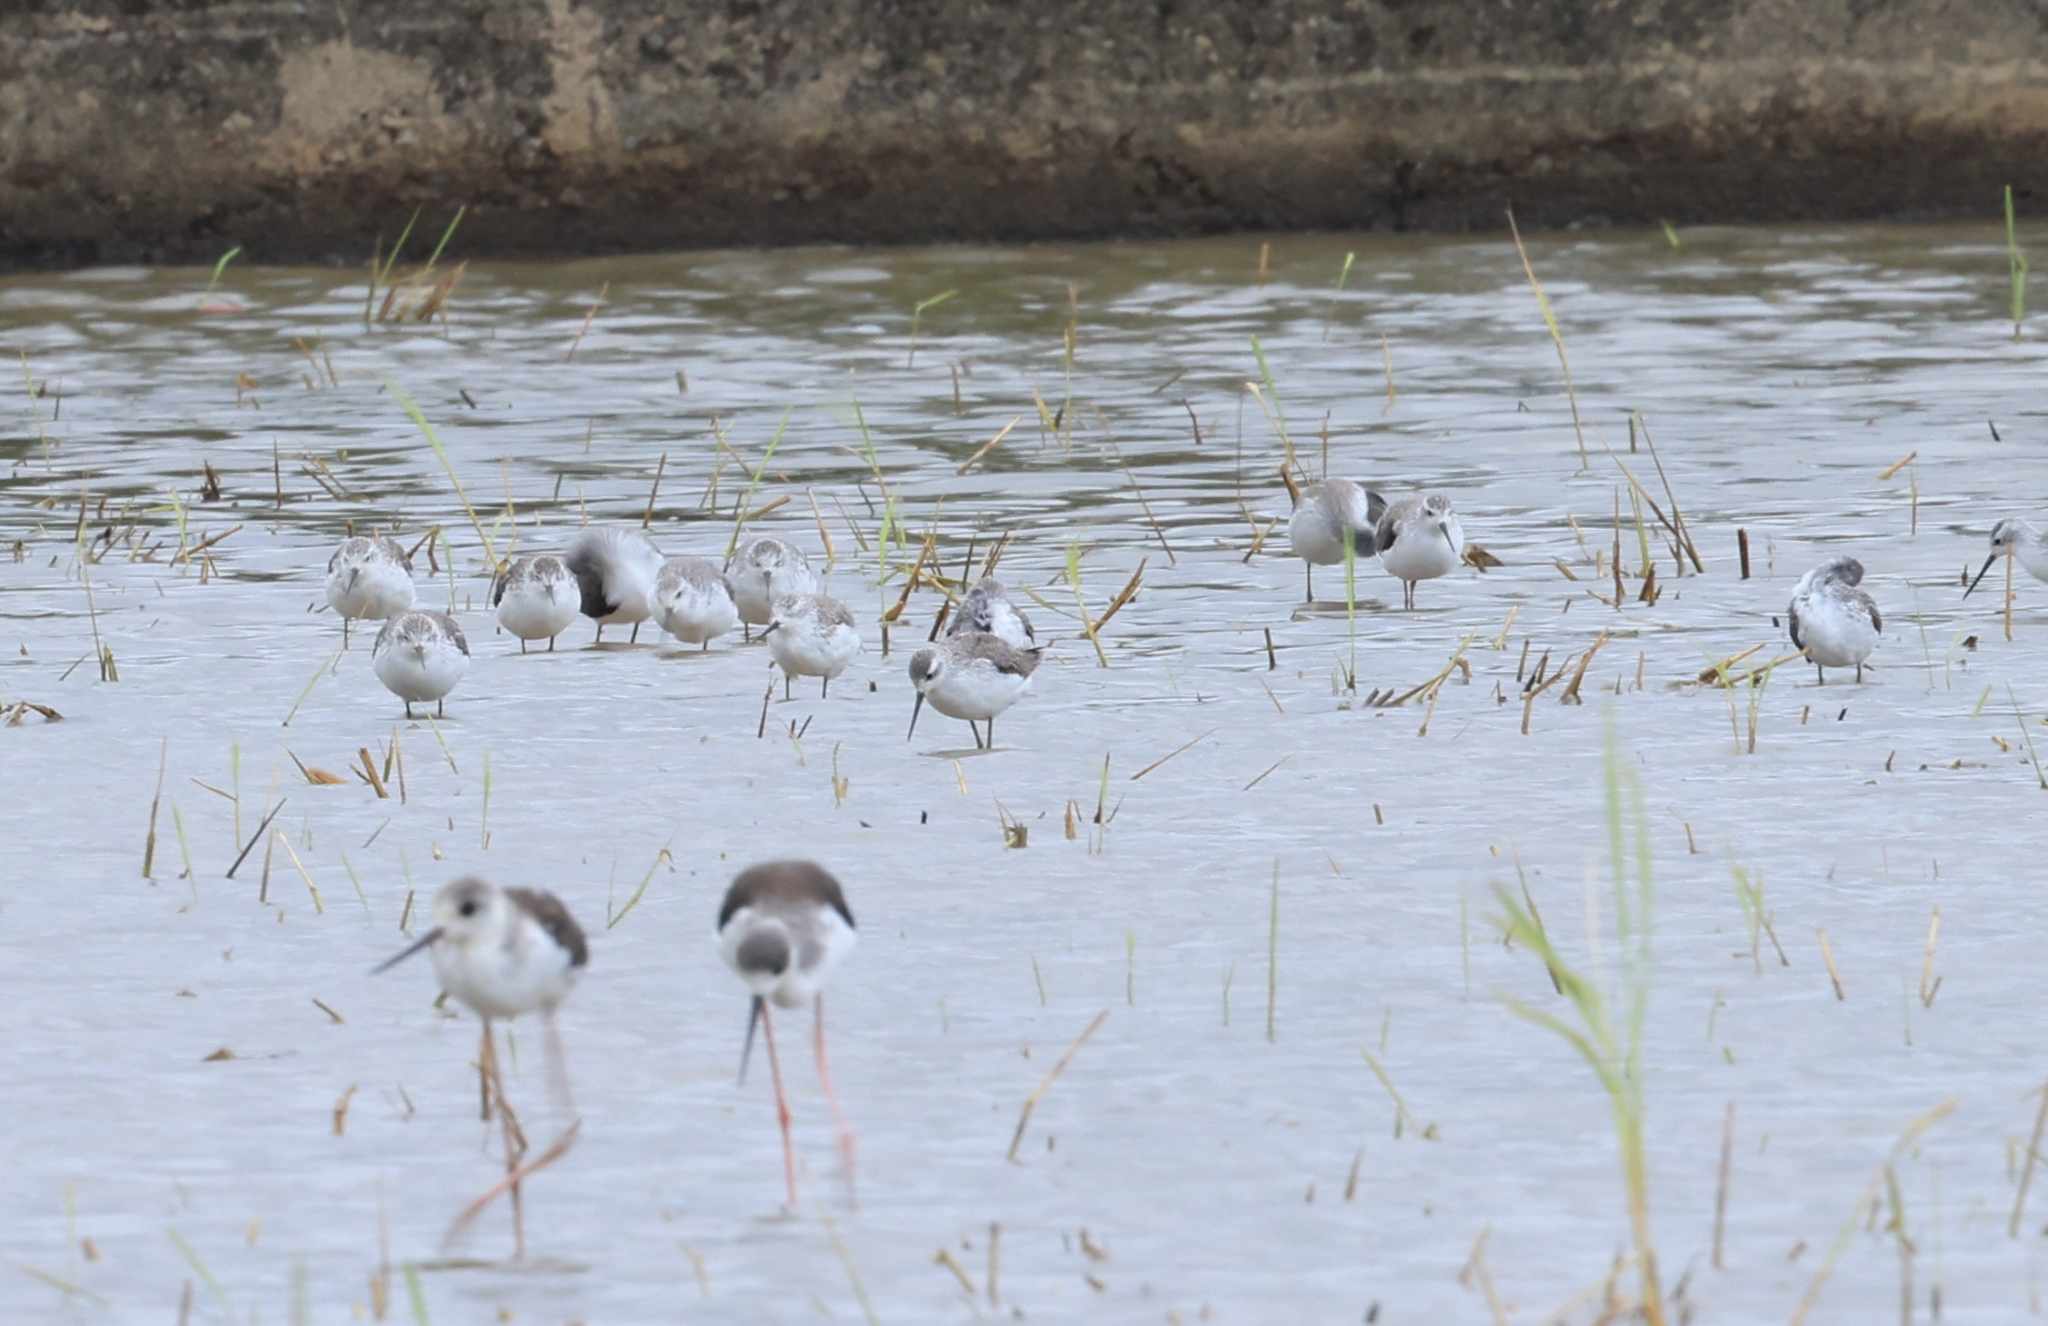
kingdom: Animalia
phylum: Chordata
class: Aves
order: Charadriiformes
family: Scolopacidae
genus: Tringa
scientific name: Tringa stagnatilis
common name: Marsh sandpiper
